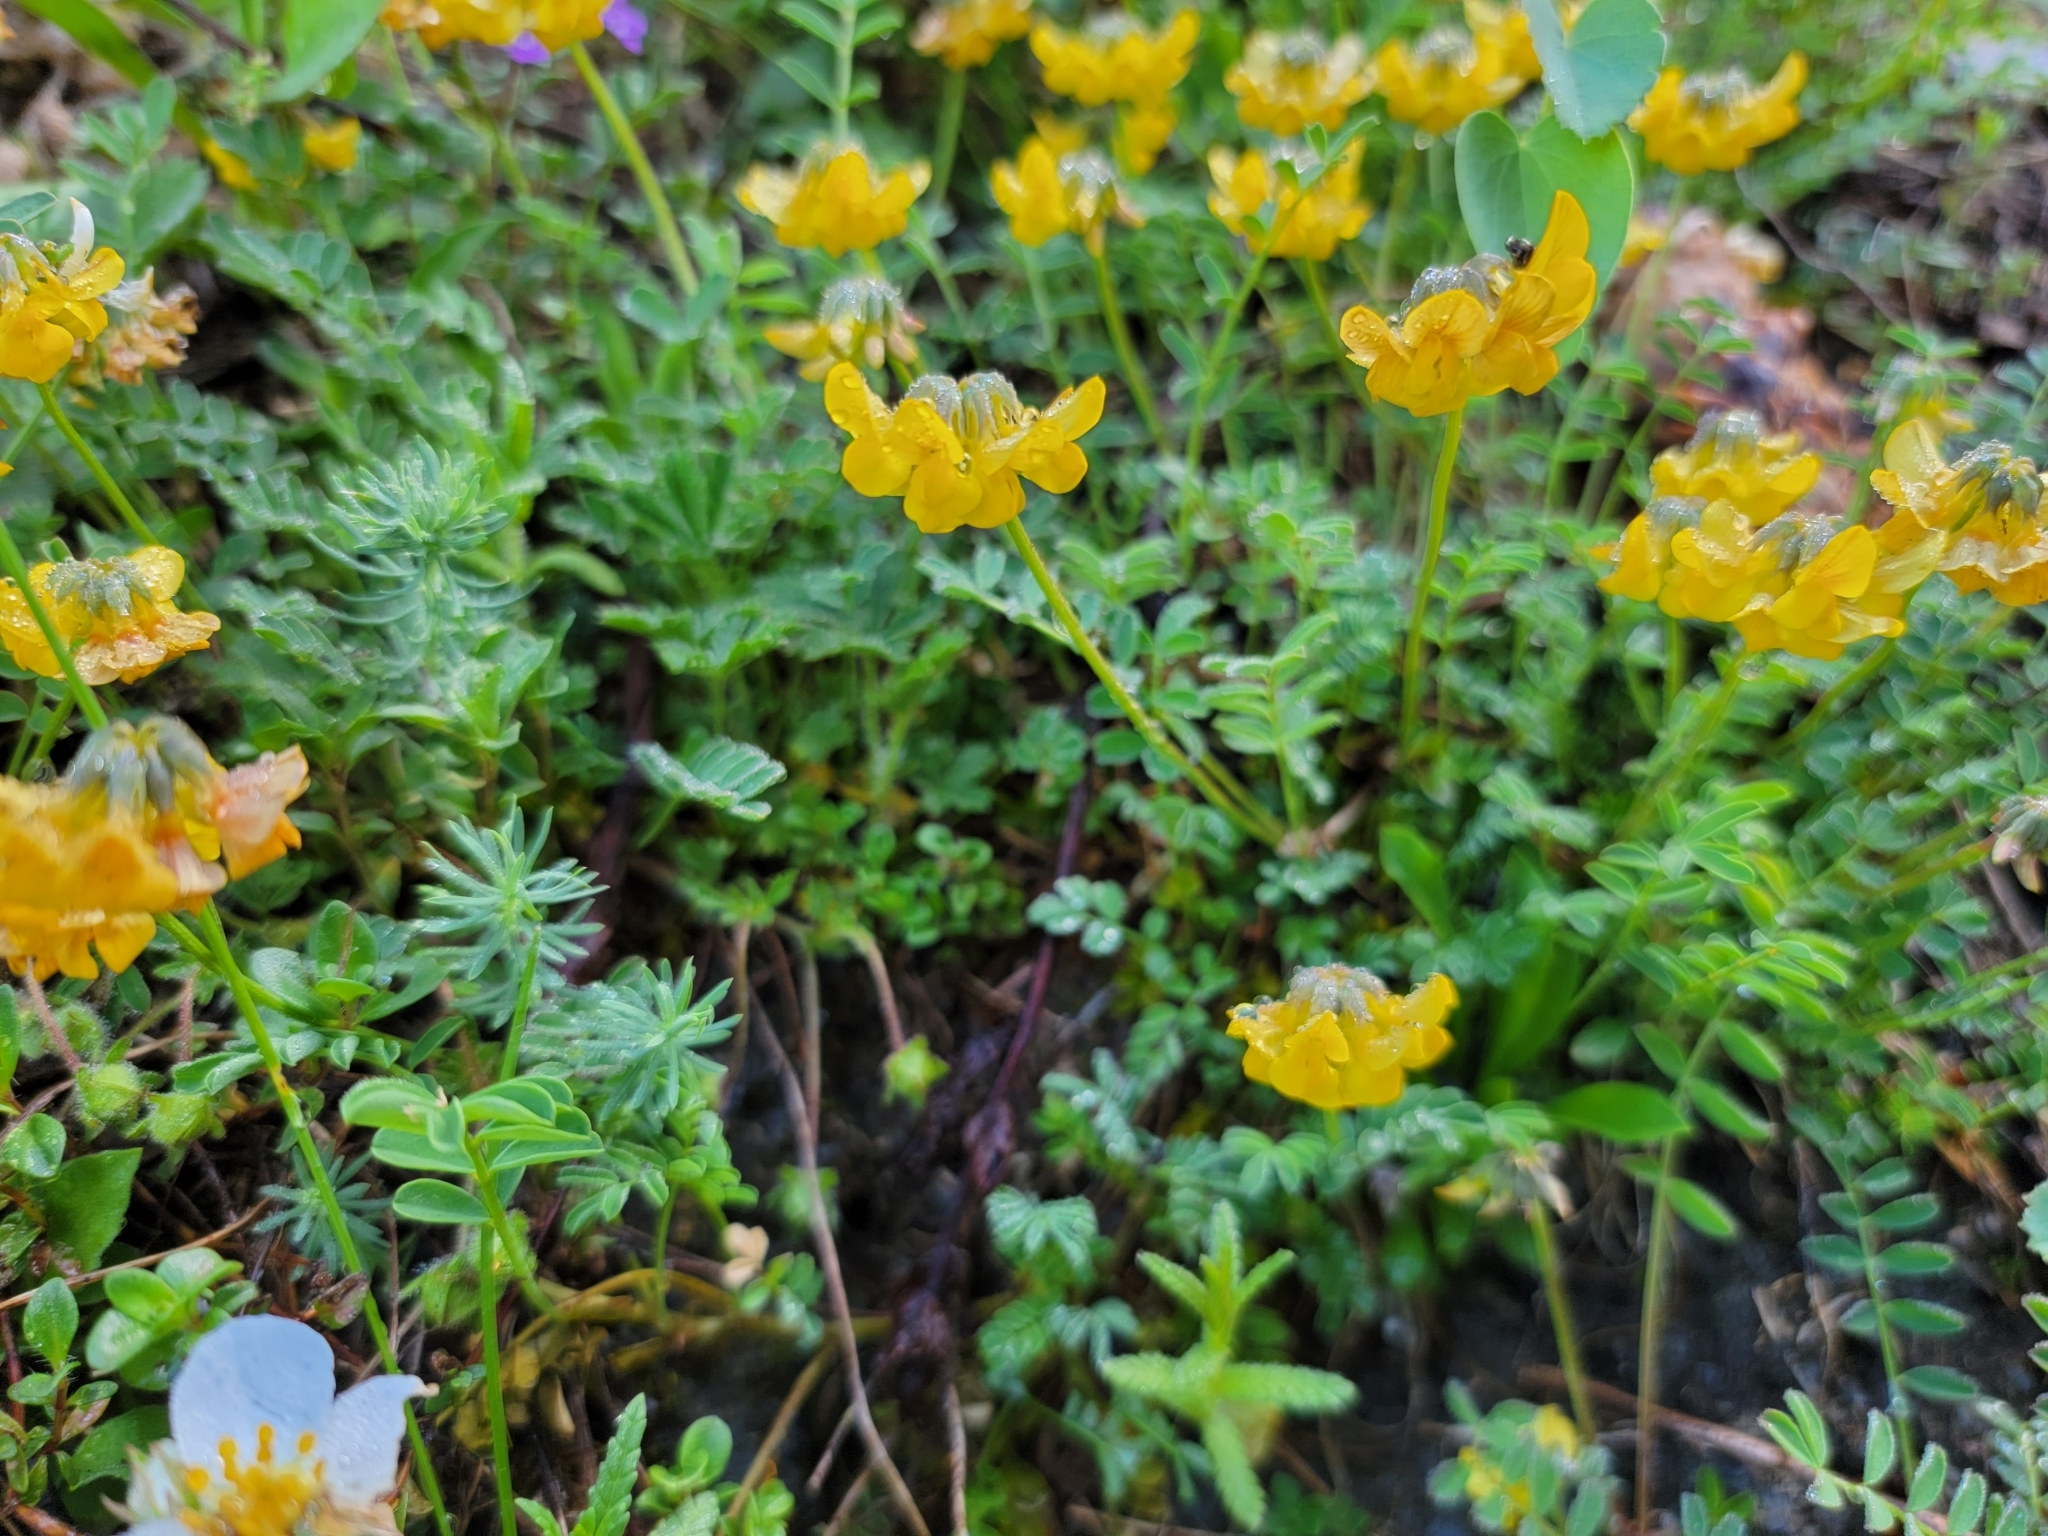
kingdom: Plantae
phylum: Tracheophyta
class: Magnoliopsida
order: Fabales
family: Fabaceae
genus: Hippocrepis
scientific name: Hippocrepis comosa
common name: Horseshoe vetch
